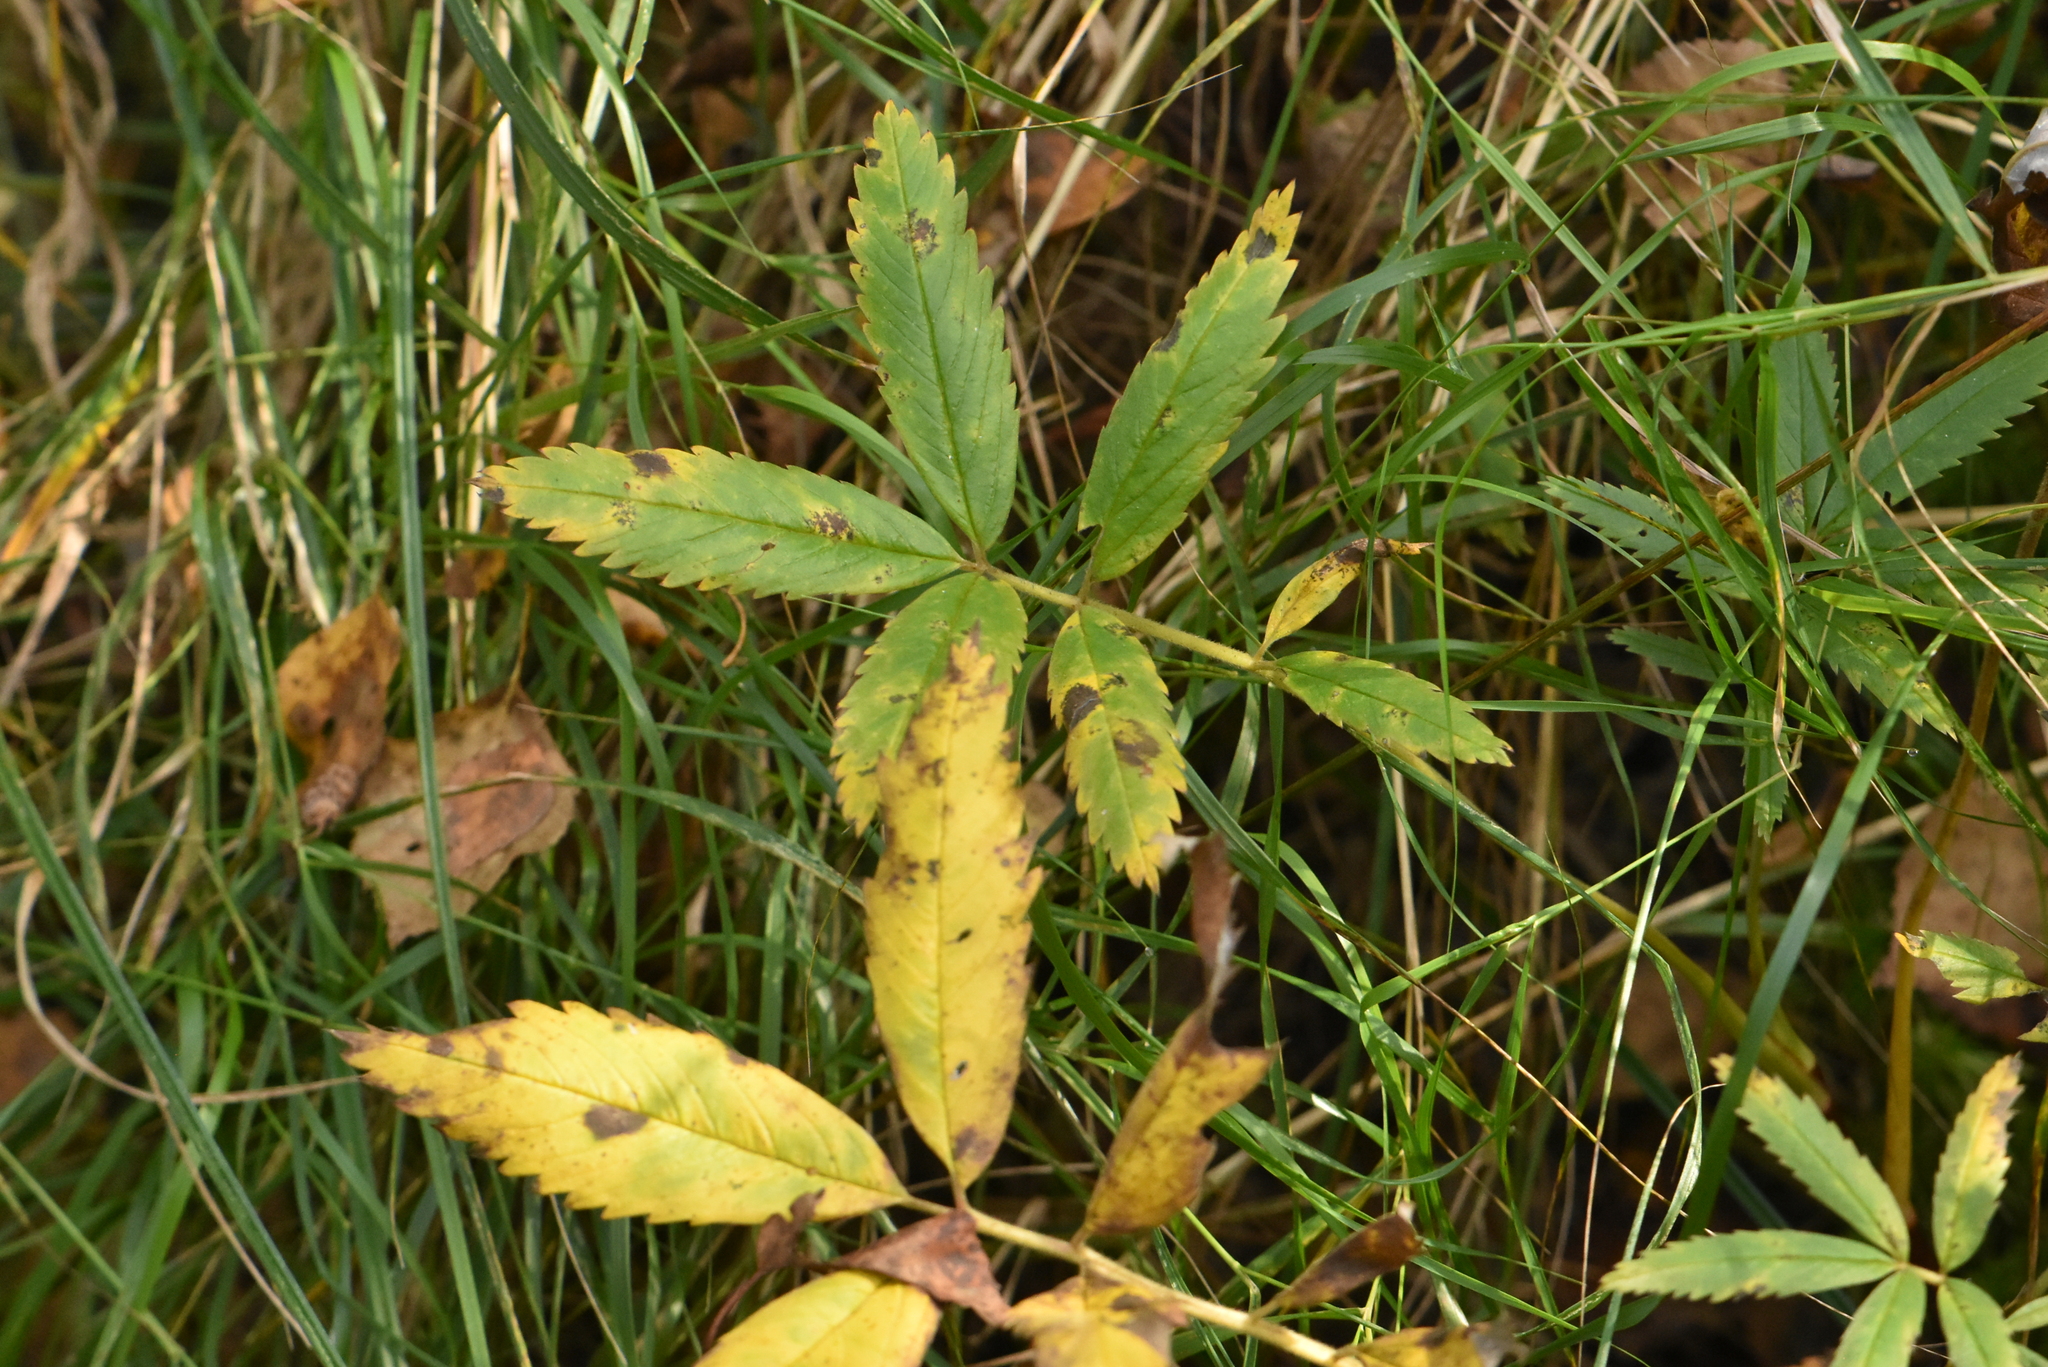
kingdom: Plantae
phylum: Tracheophyta
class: Magnoliopsida
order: Rosales
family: Rosaceae
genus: Comarum
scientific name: Comarum palustre
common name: Marsh cinquefoil
